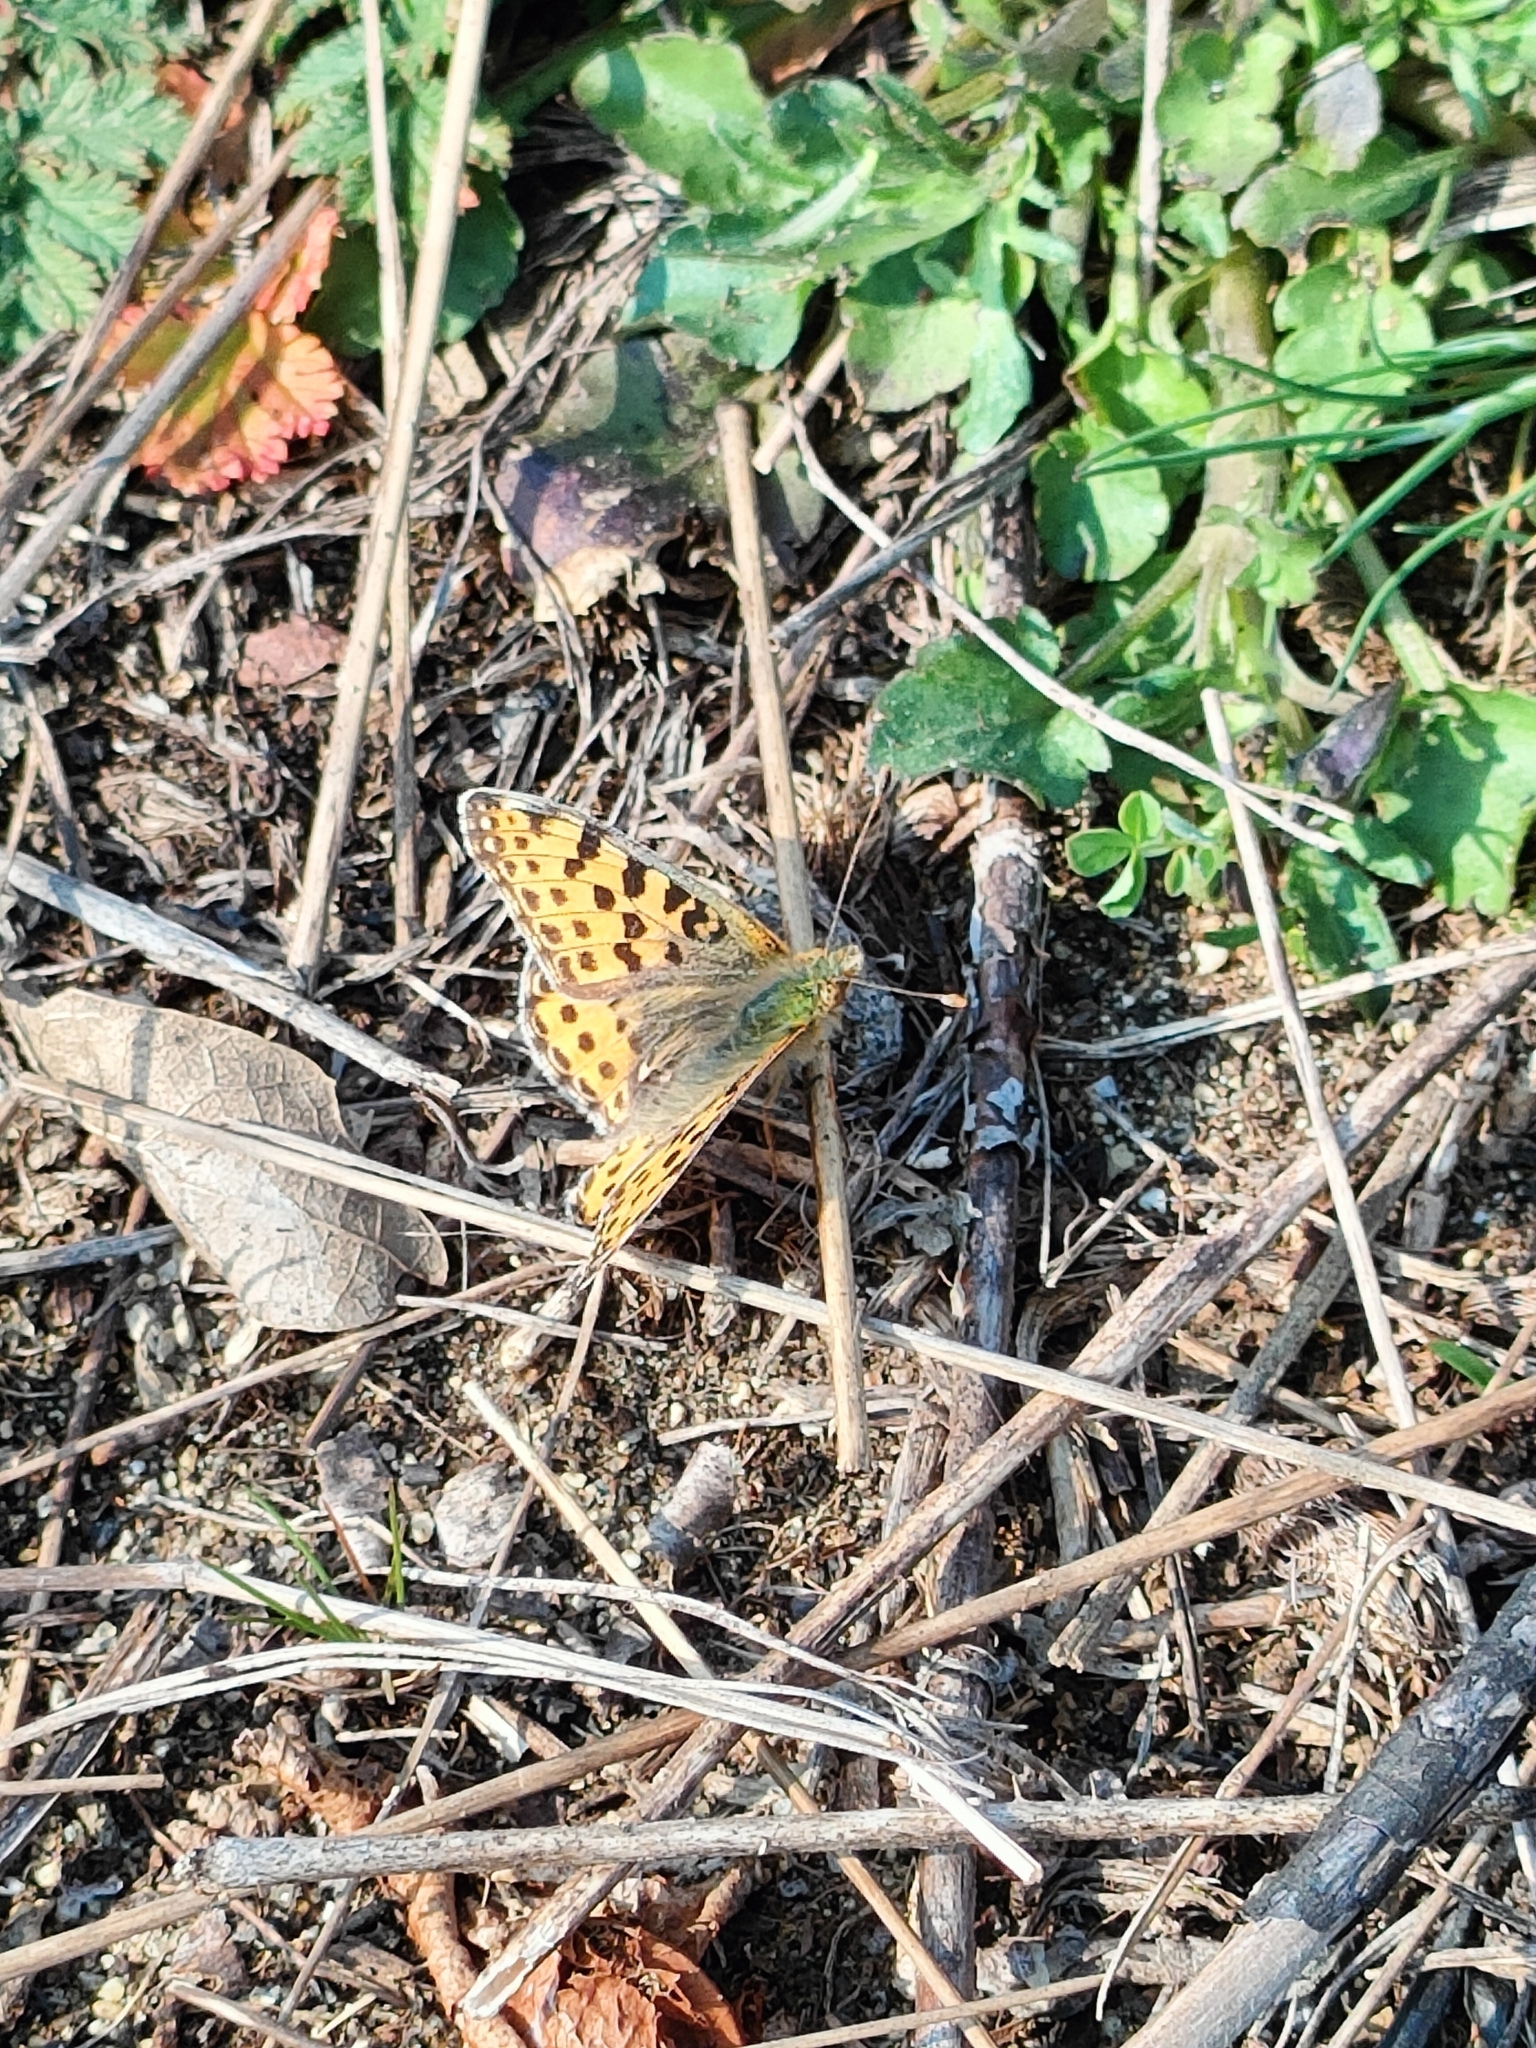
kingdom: Animalia
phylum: Arthropoda
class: Insecta
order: Lepidoptera
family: Nymphalidae
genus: Issoria
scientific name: Issoria lathonia
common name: Queen of spain fritillary
